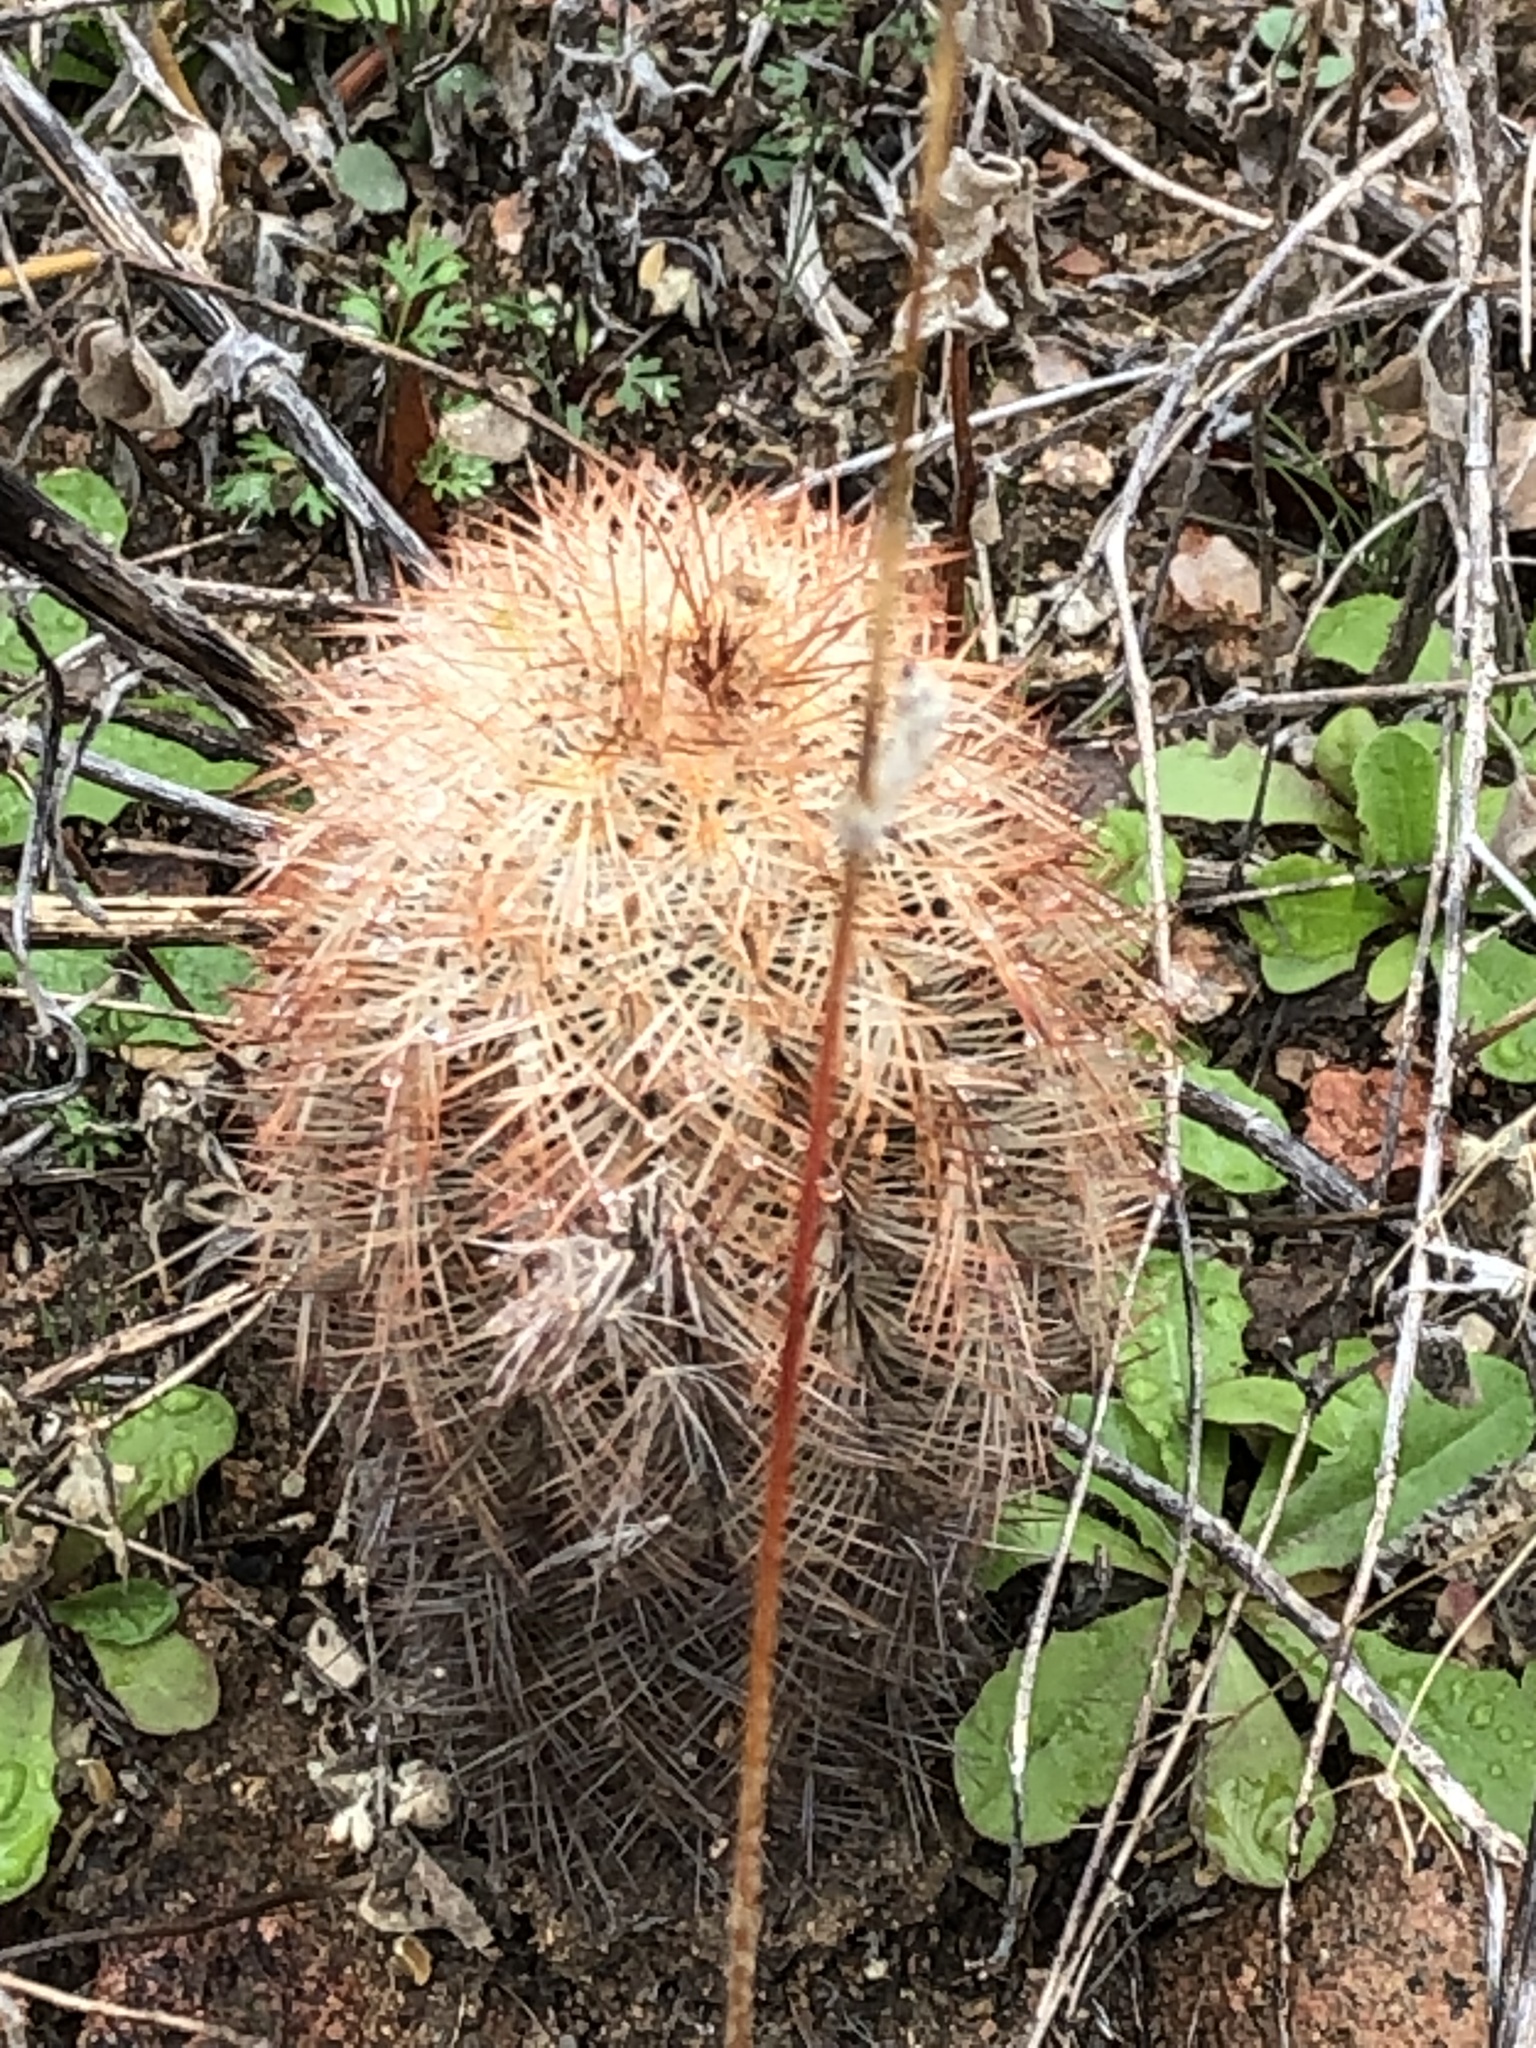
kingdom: Plantae
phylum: Tracheophyta
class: Magnoliopsida
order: Caryophyllales
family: Cactaceae
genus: Echinocereus
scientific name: Echinocereus reichenbachii
